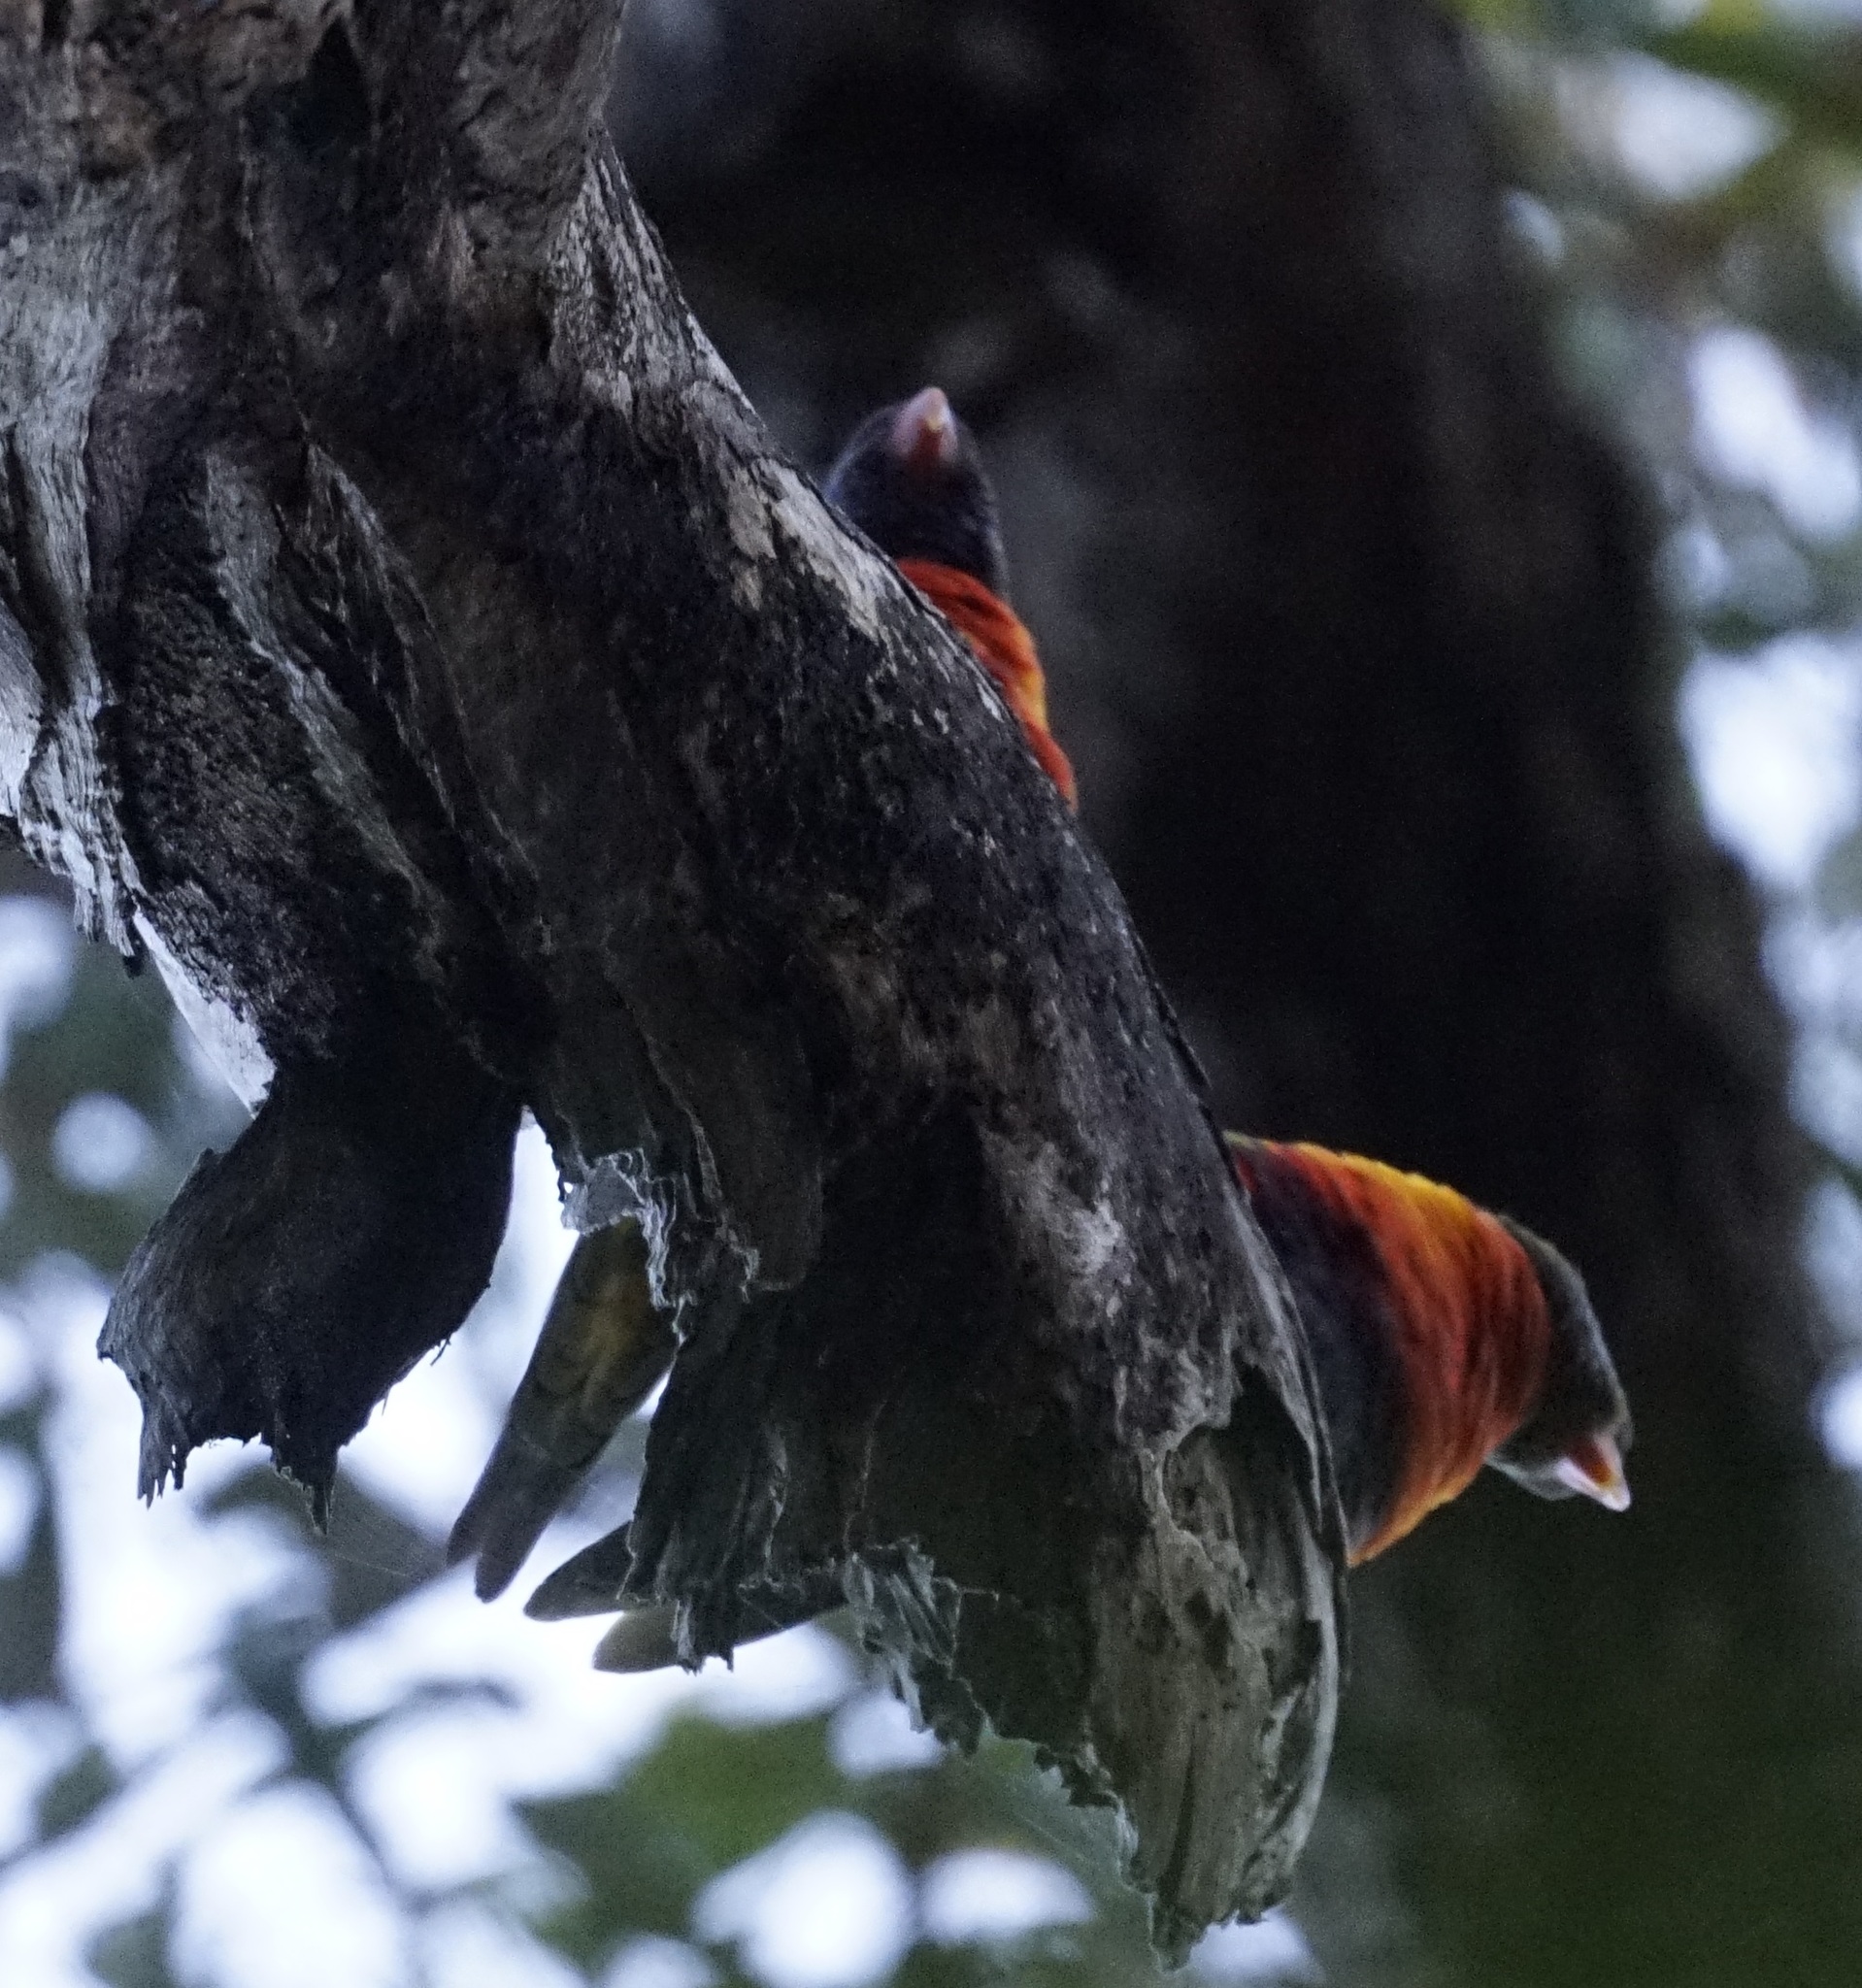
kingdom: Animalia
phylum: Chordata
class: Aves
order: Psittaciformes
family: Psittacidae
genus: Trichoglossus
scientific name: Trichoglossus haematodus
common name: Coconut lorikeet
